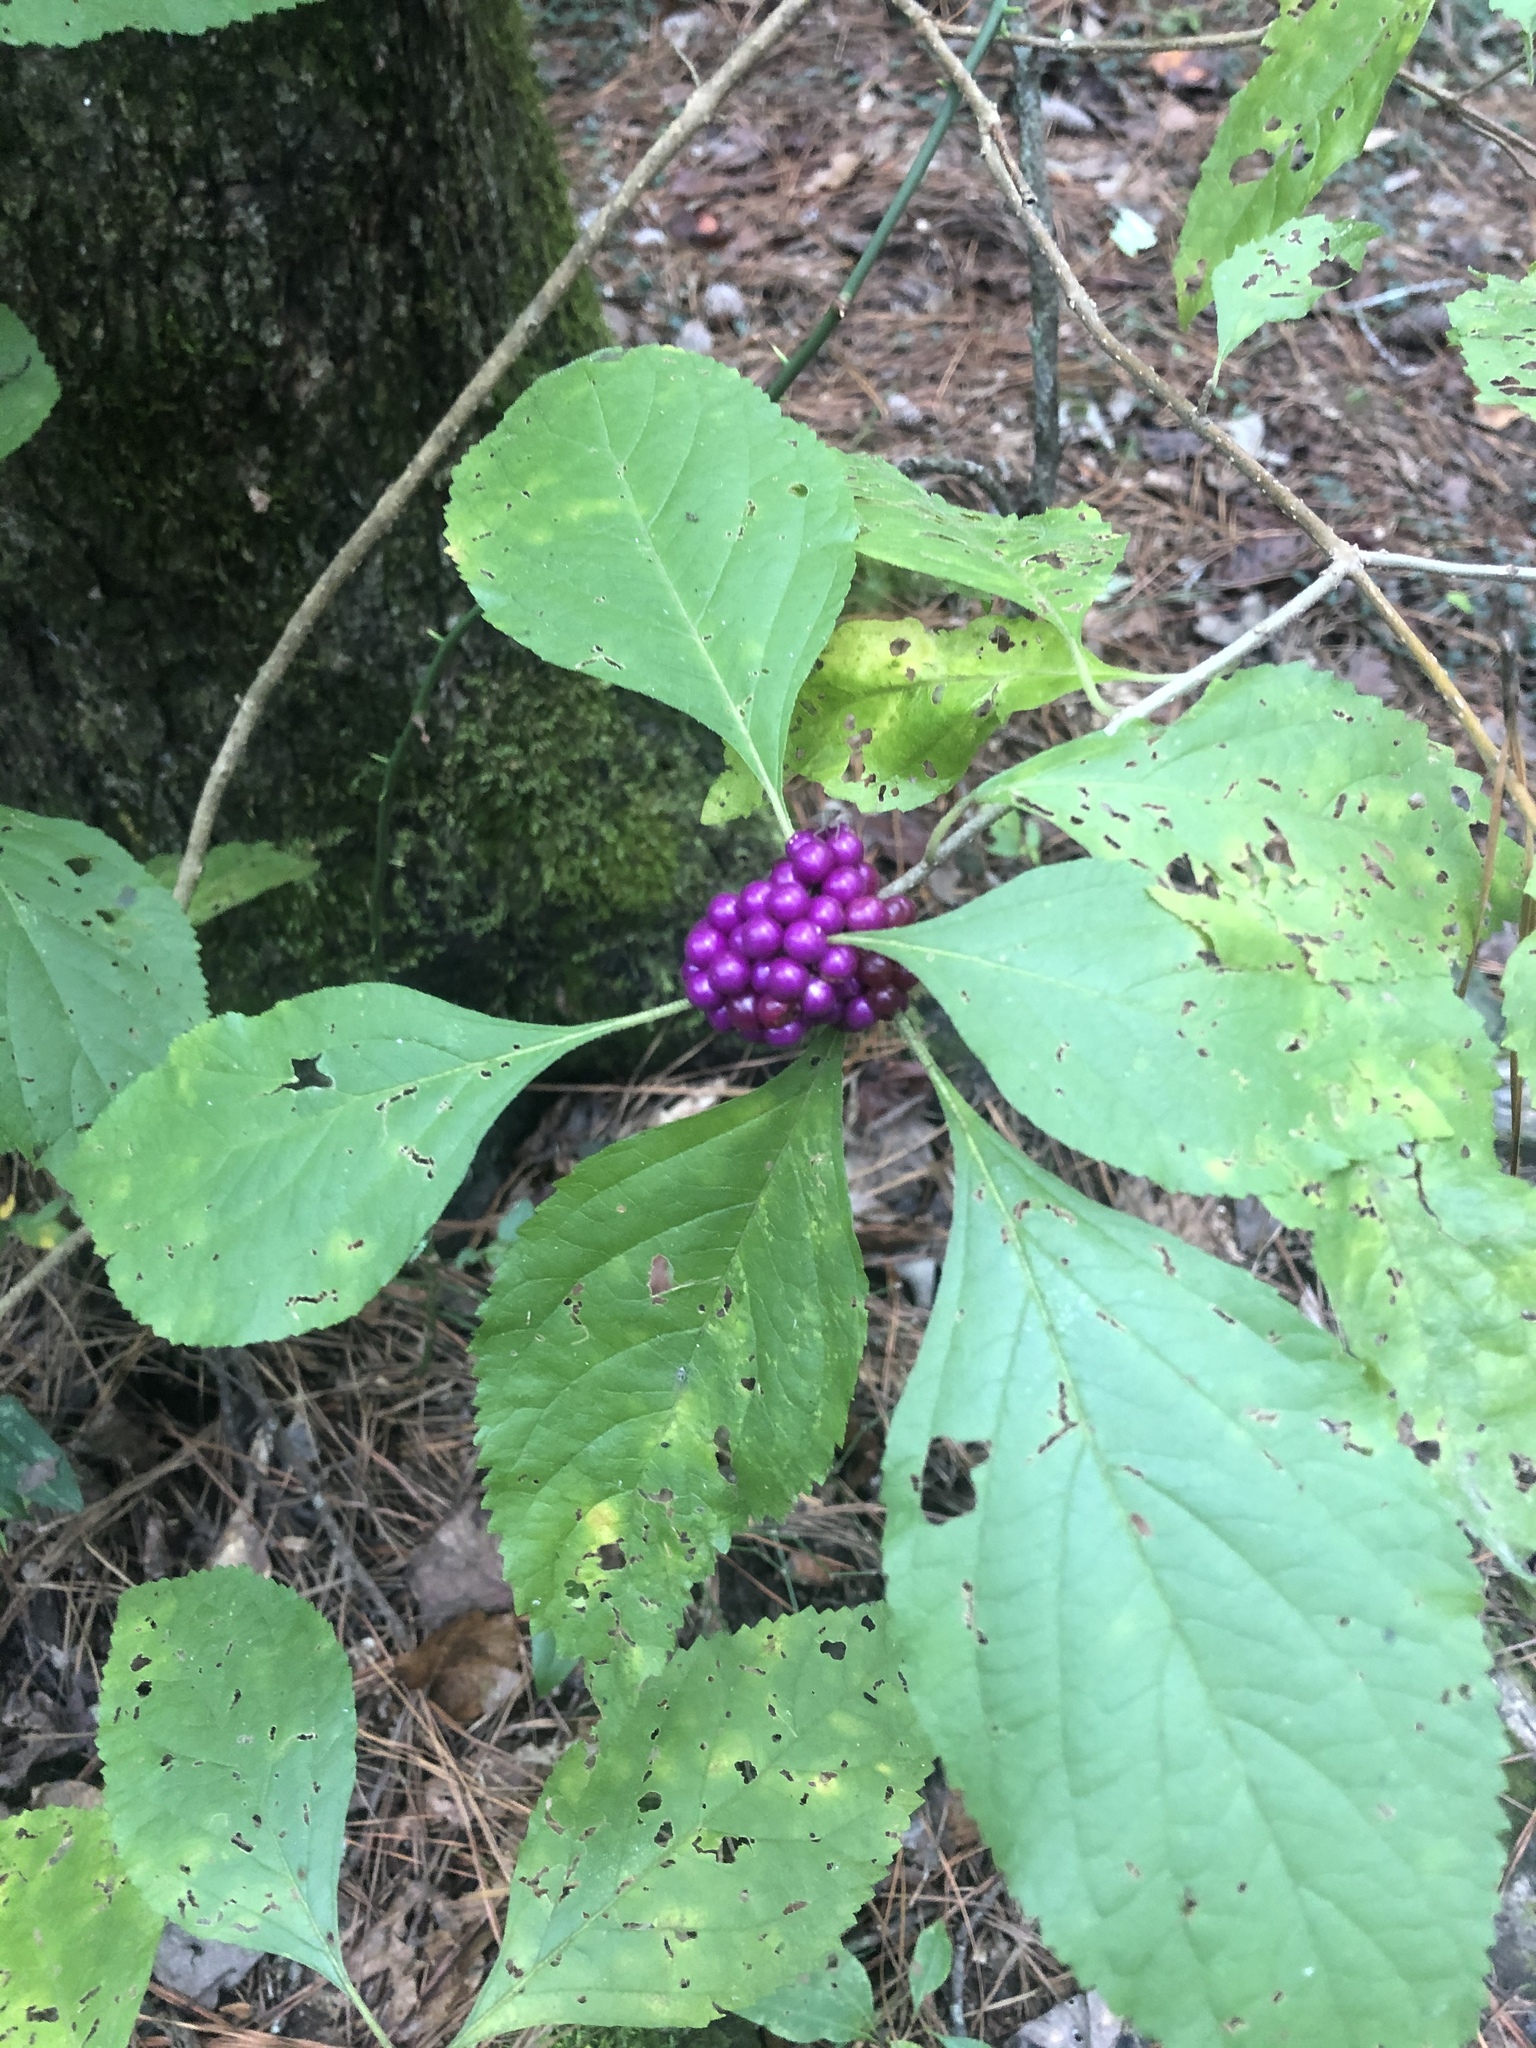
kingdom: Plantae
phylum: Tracheophyta
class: Magnoliopsida
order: Lamiales
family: Lamiaceae
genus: Callicarpa
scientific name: Callicarpa americana
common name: American beautyberry
